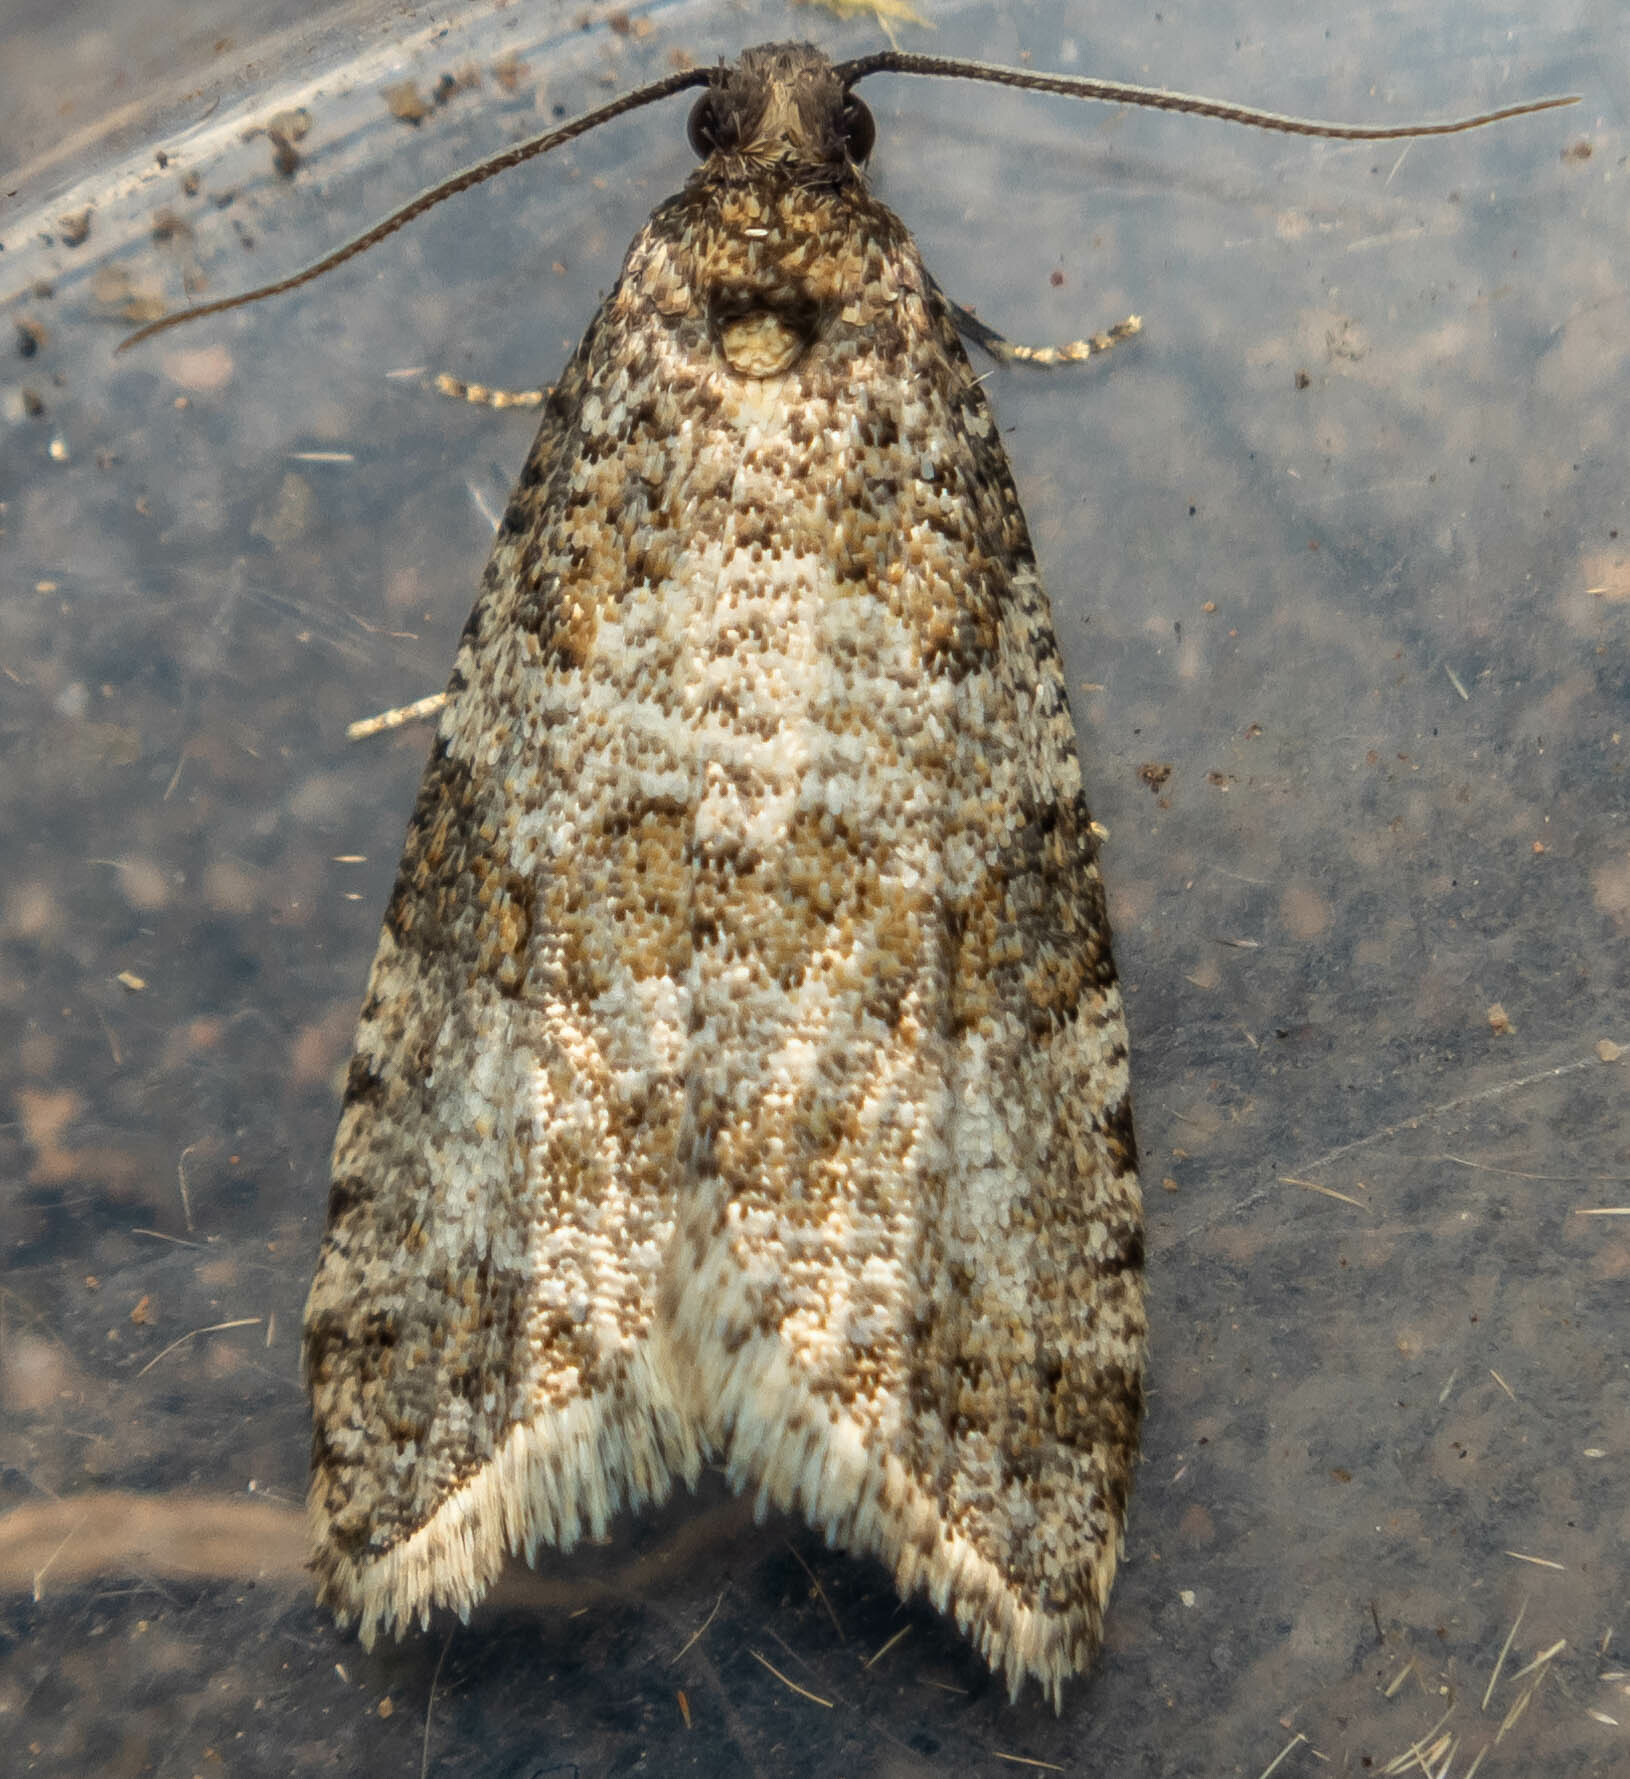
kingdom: Animalia
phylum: Arthropoda
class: Insecta
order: Lepidoptera
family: Tortricidae
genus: Isotrias
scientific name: Isotrias rectifasciana
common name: Hedge shade
